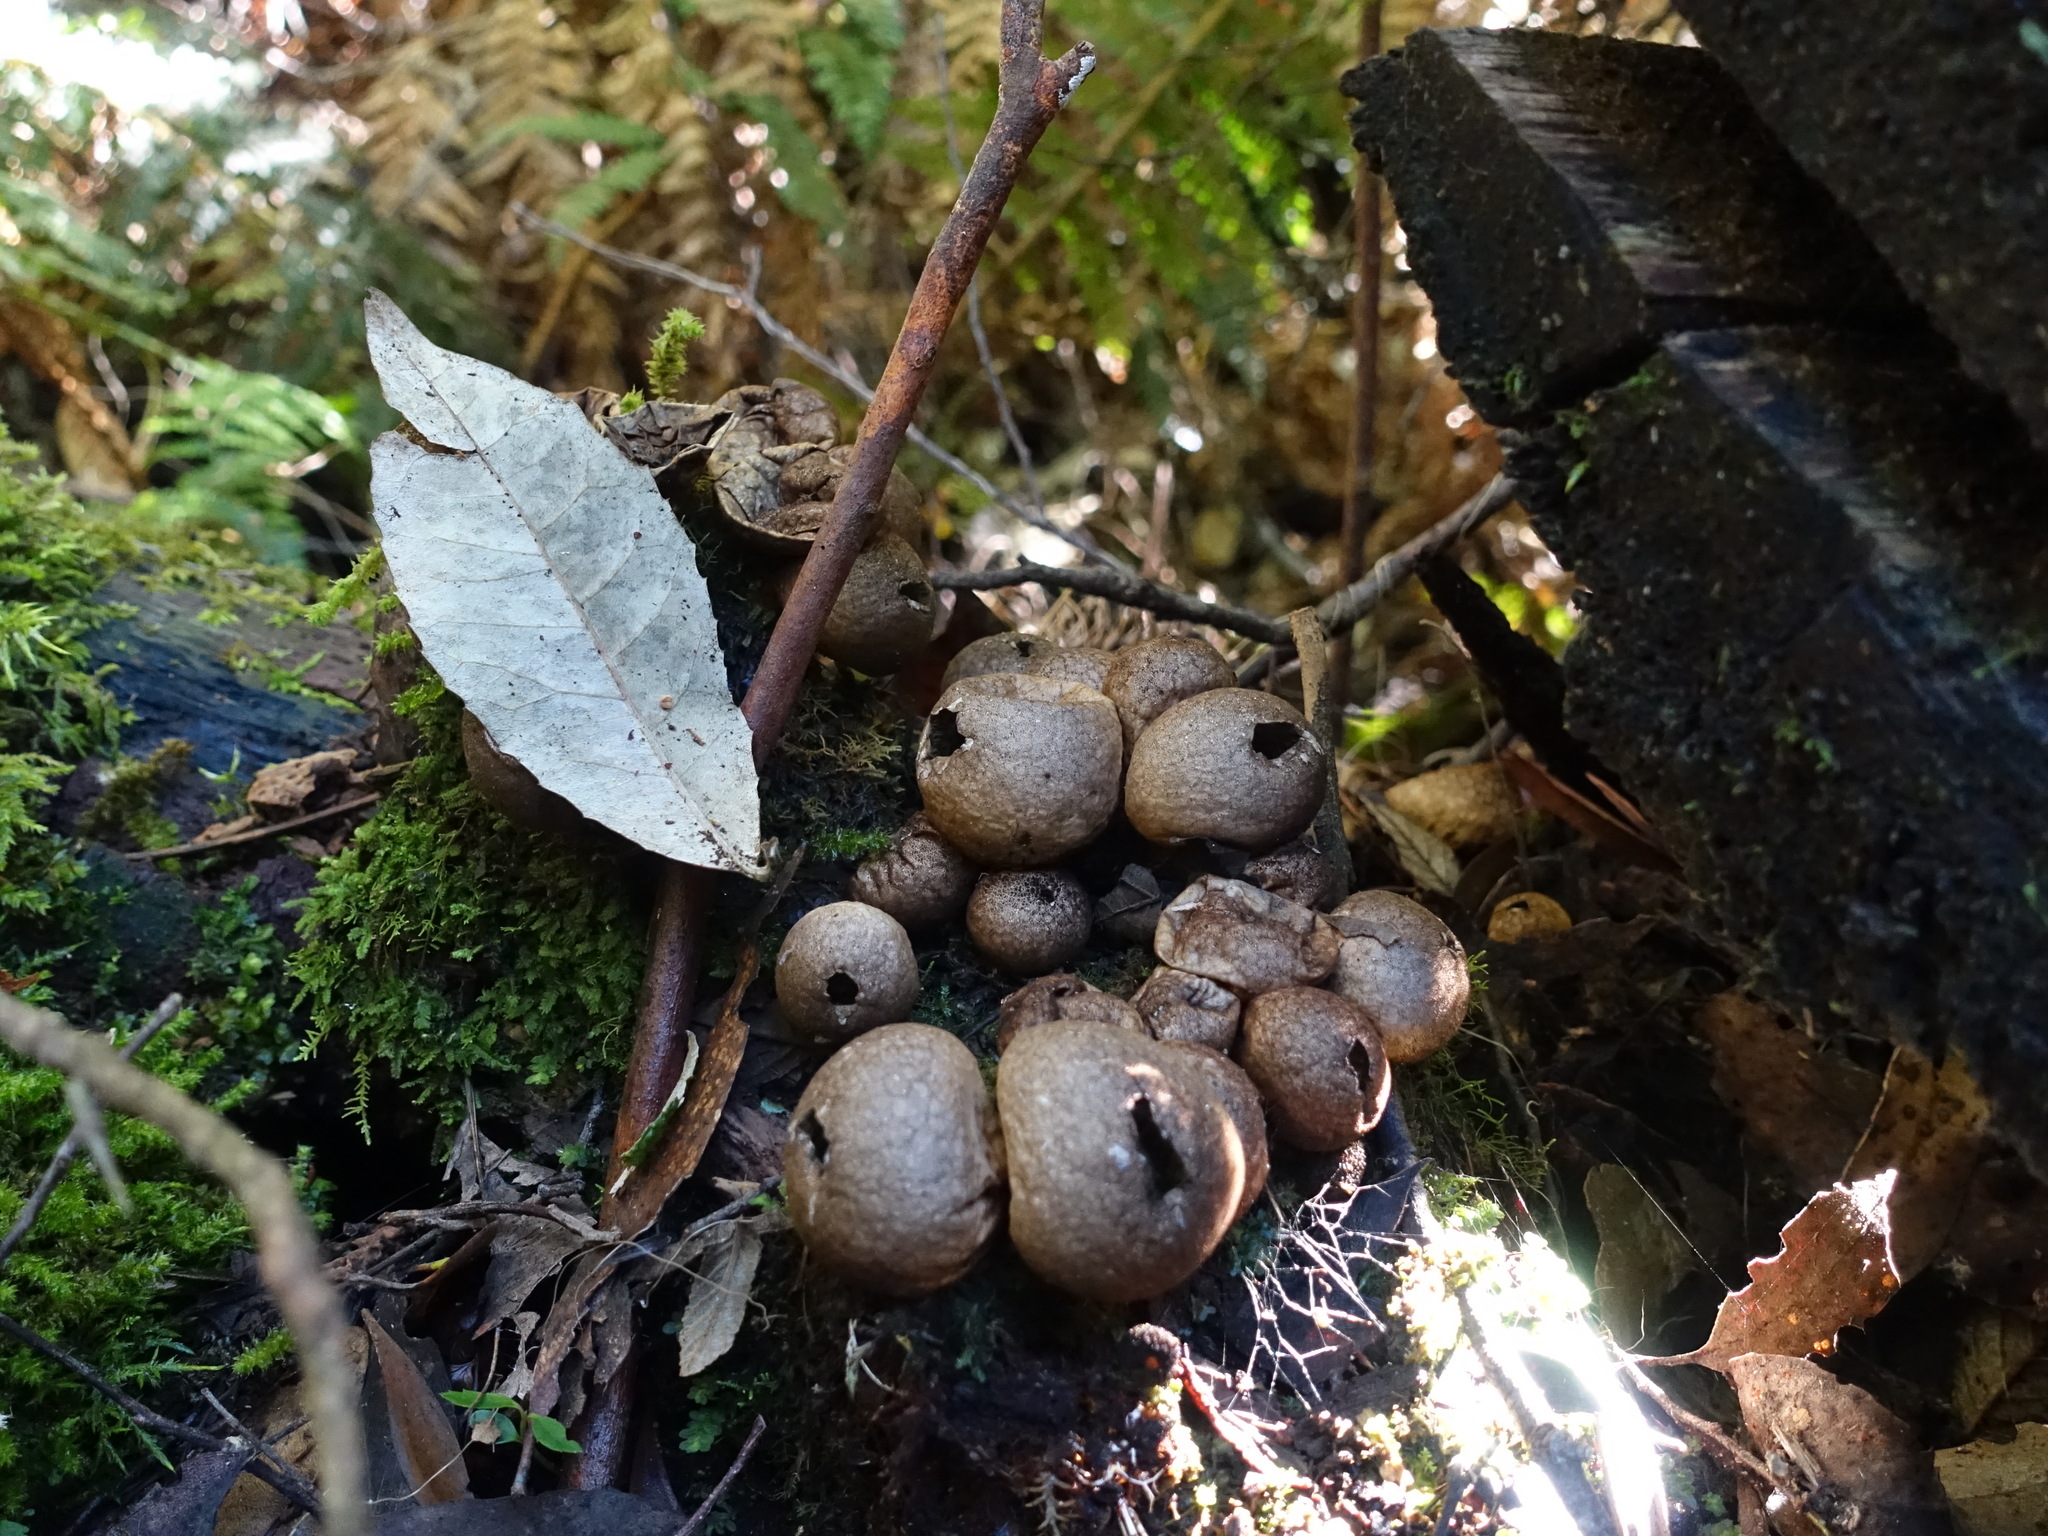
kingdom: Fungi
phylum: Basidiomycota
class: Agaricomycetes
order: Agaricales
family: Lycoperdaceae
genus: Apioperdon
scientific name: Apioperdon pyriforme
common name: Pear-shaped puffball
